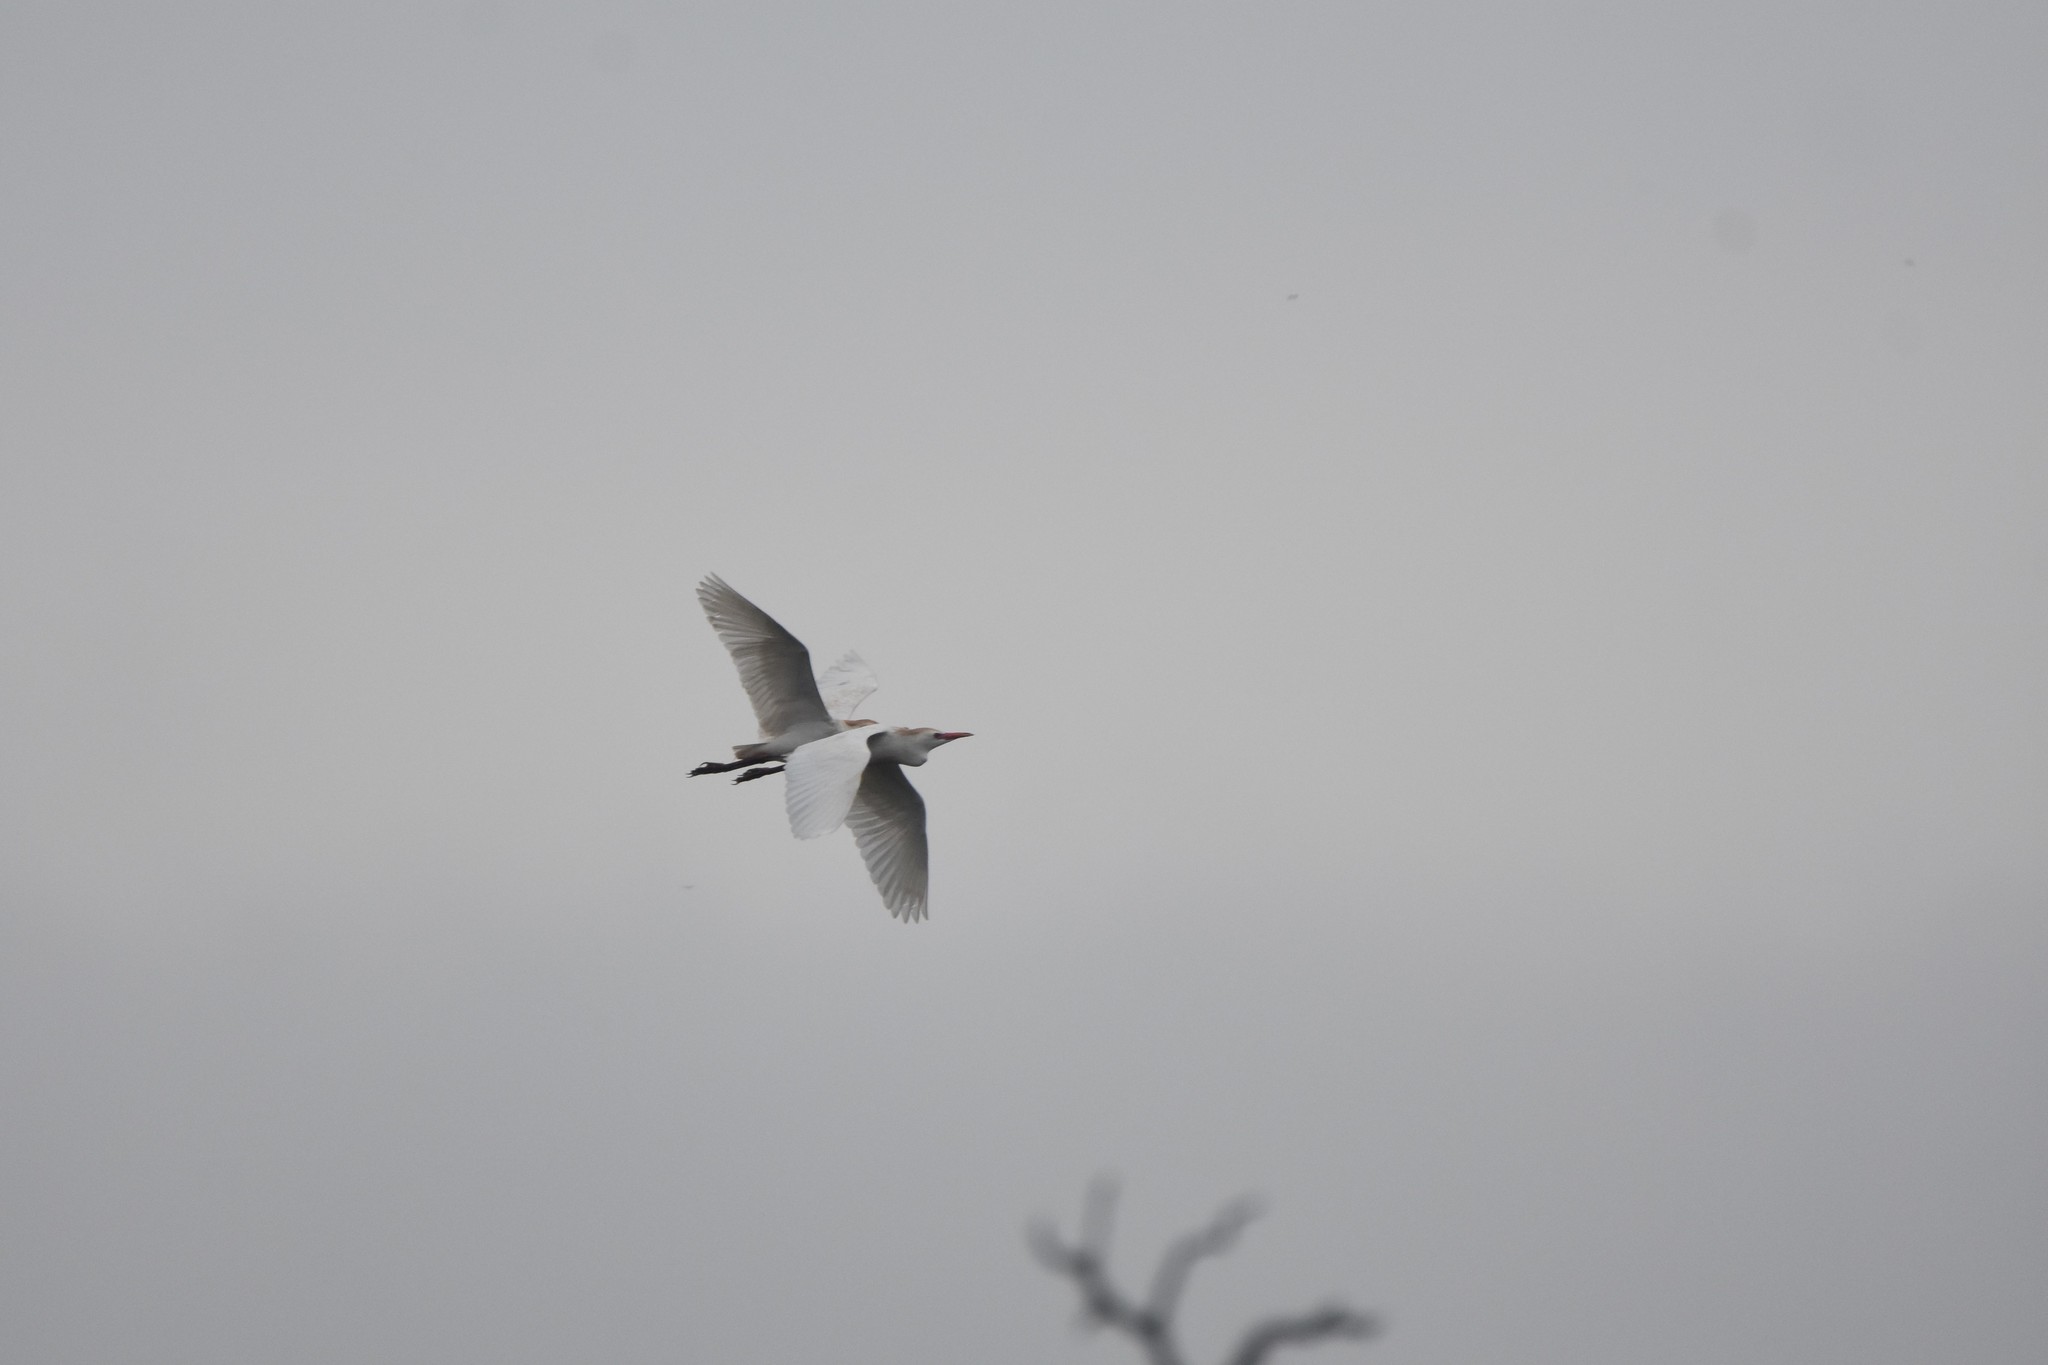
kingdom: Animalia
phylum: Chordata
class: Aves
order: Pelecaniformes
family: Ardeidae
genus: Bubulcus
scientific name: Bubulcus ibis
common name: Cattle egret
